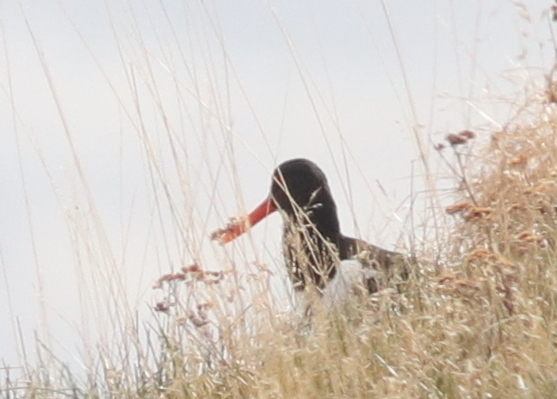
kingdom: Animalia
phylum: Chordata
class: Aves
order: Charadriiformes
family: Haematopodidae
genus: Haematopus
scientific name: Haematopus ostralegus
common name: Eurasian oystercatcher
